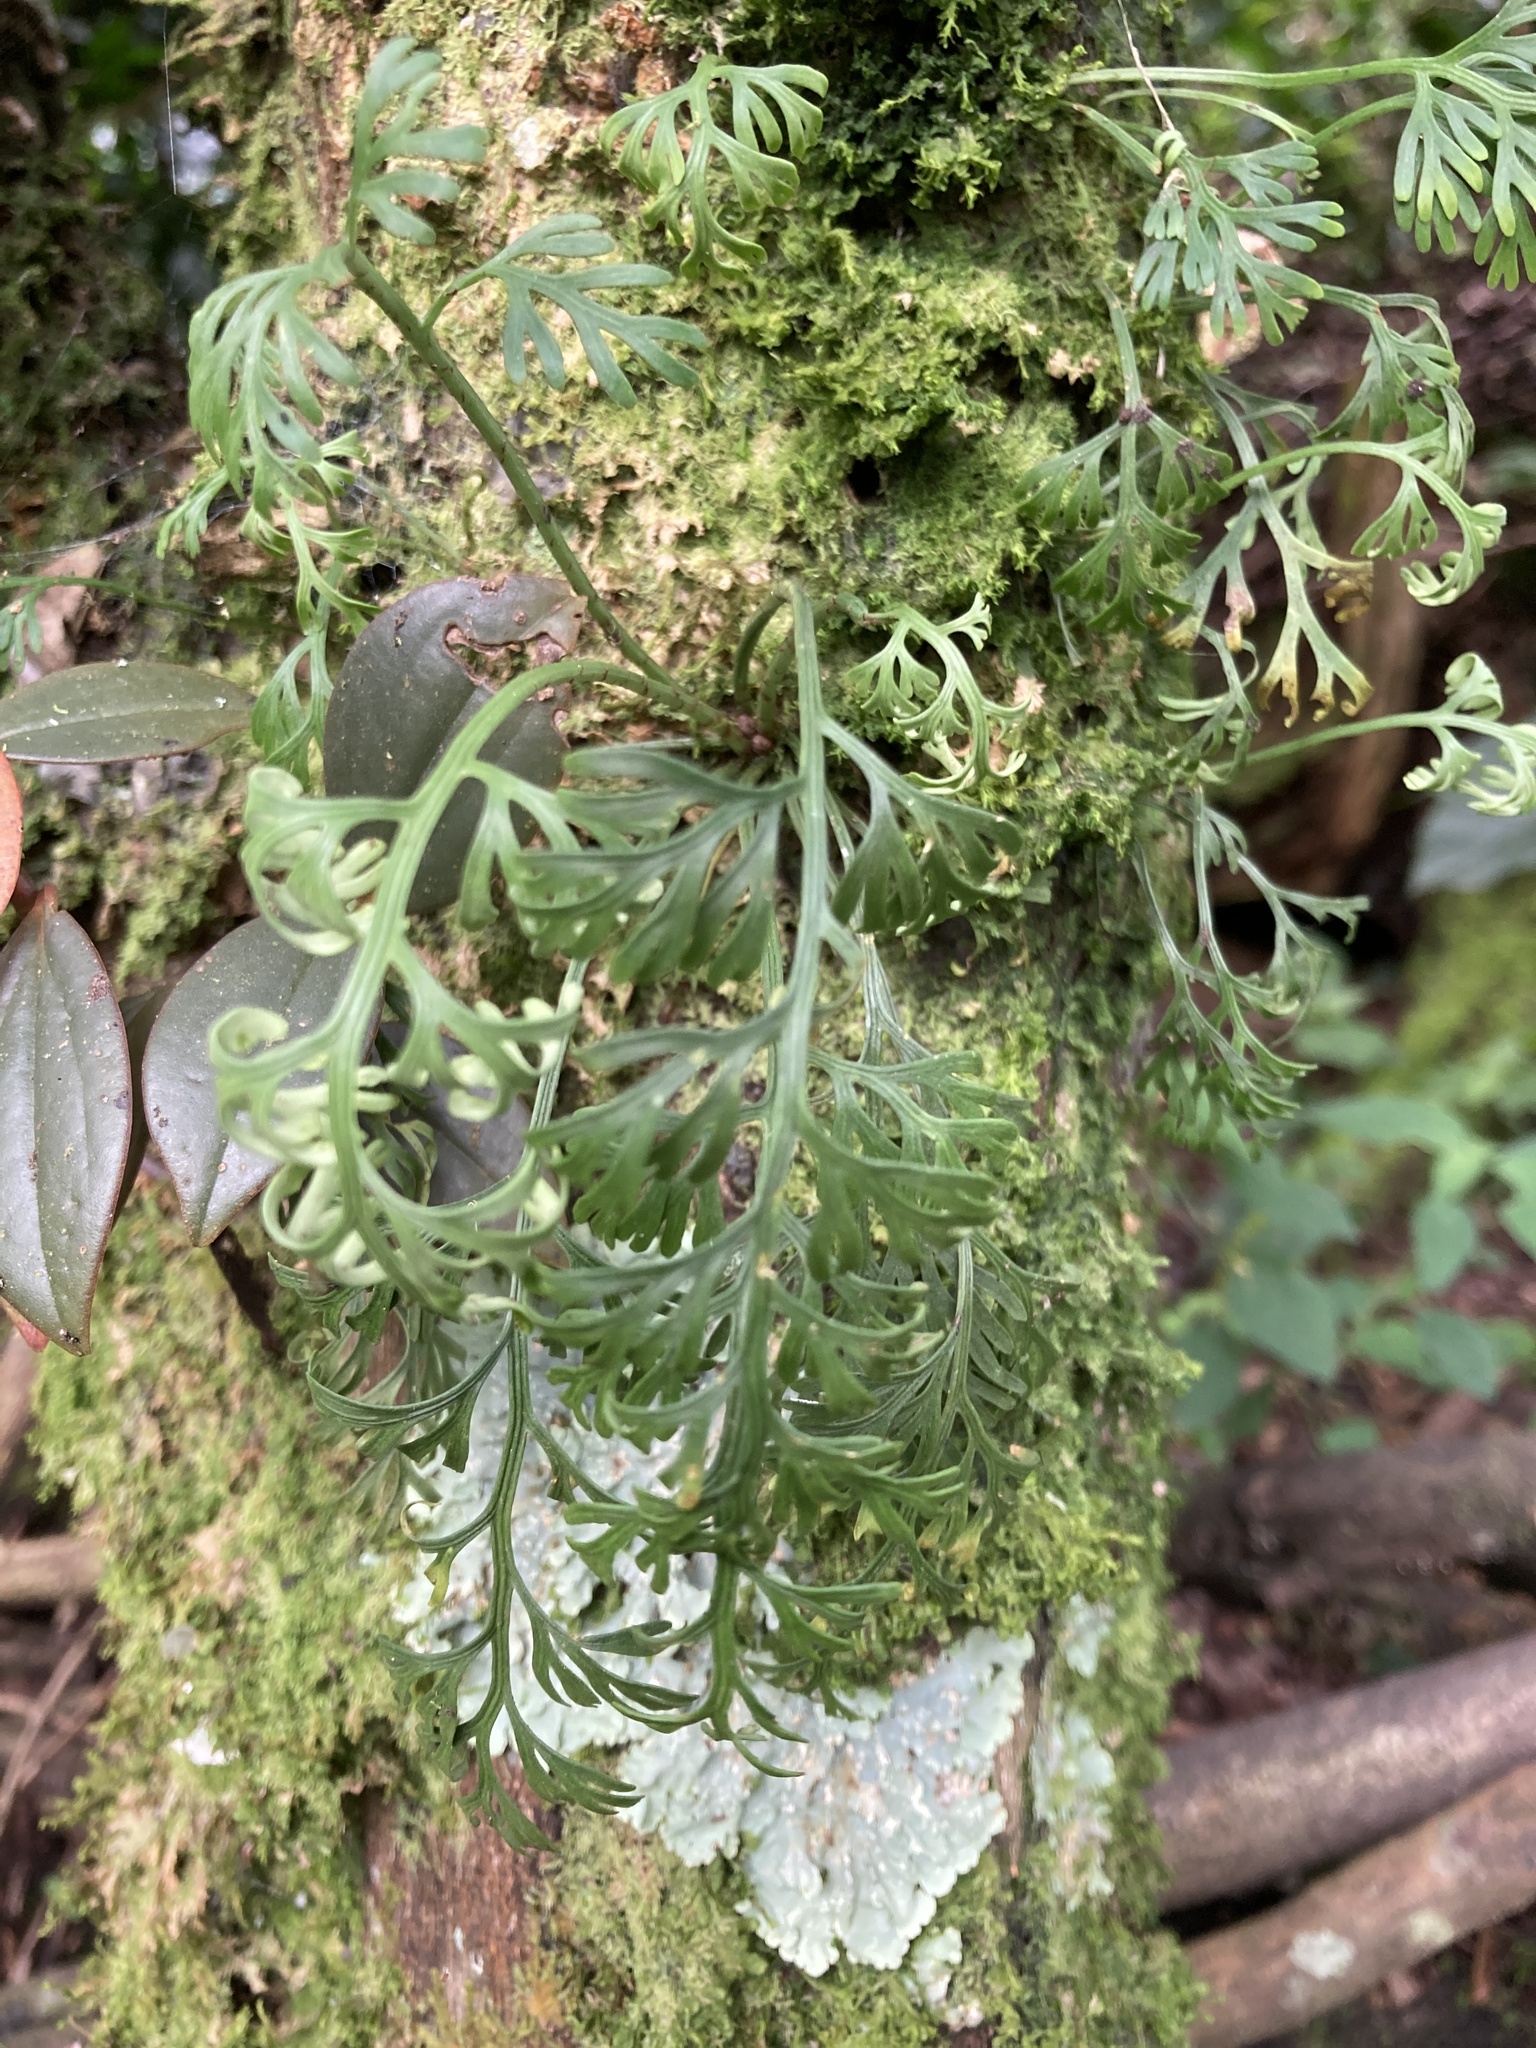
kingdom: Plantae
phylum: Tracheophyta
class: Polypodiopsida
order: Polypodiales
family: Aspleniaceae
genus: Asplenium
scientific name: Asplenium theciferum
